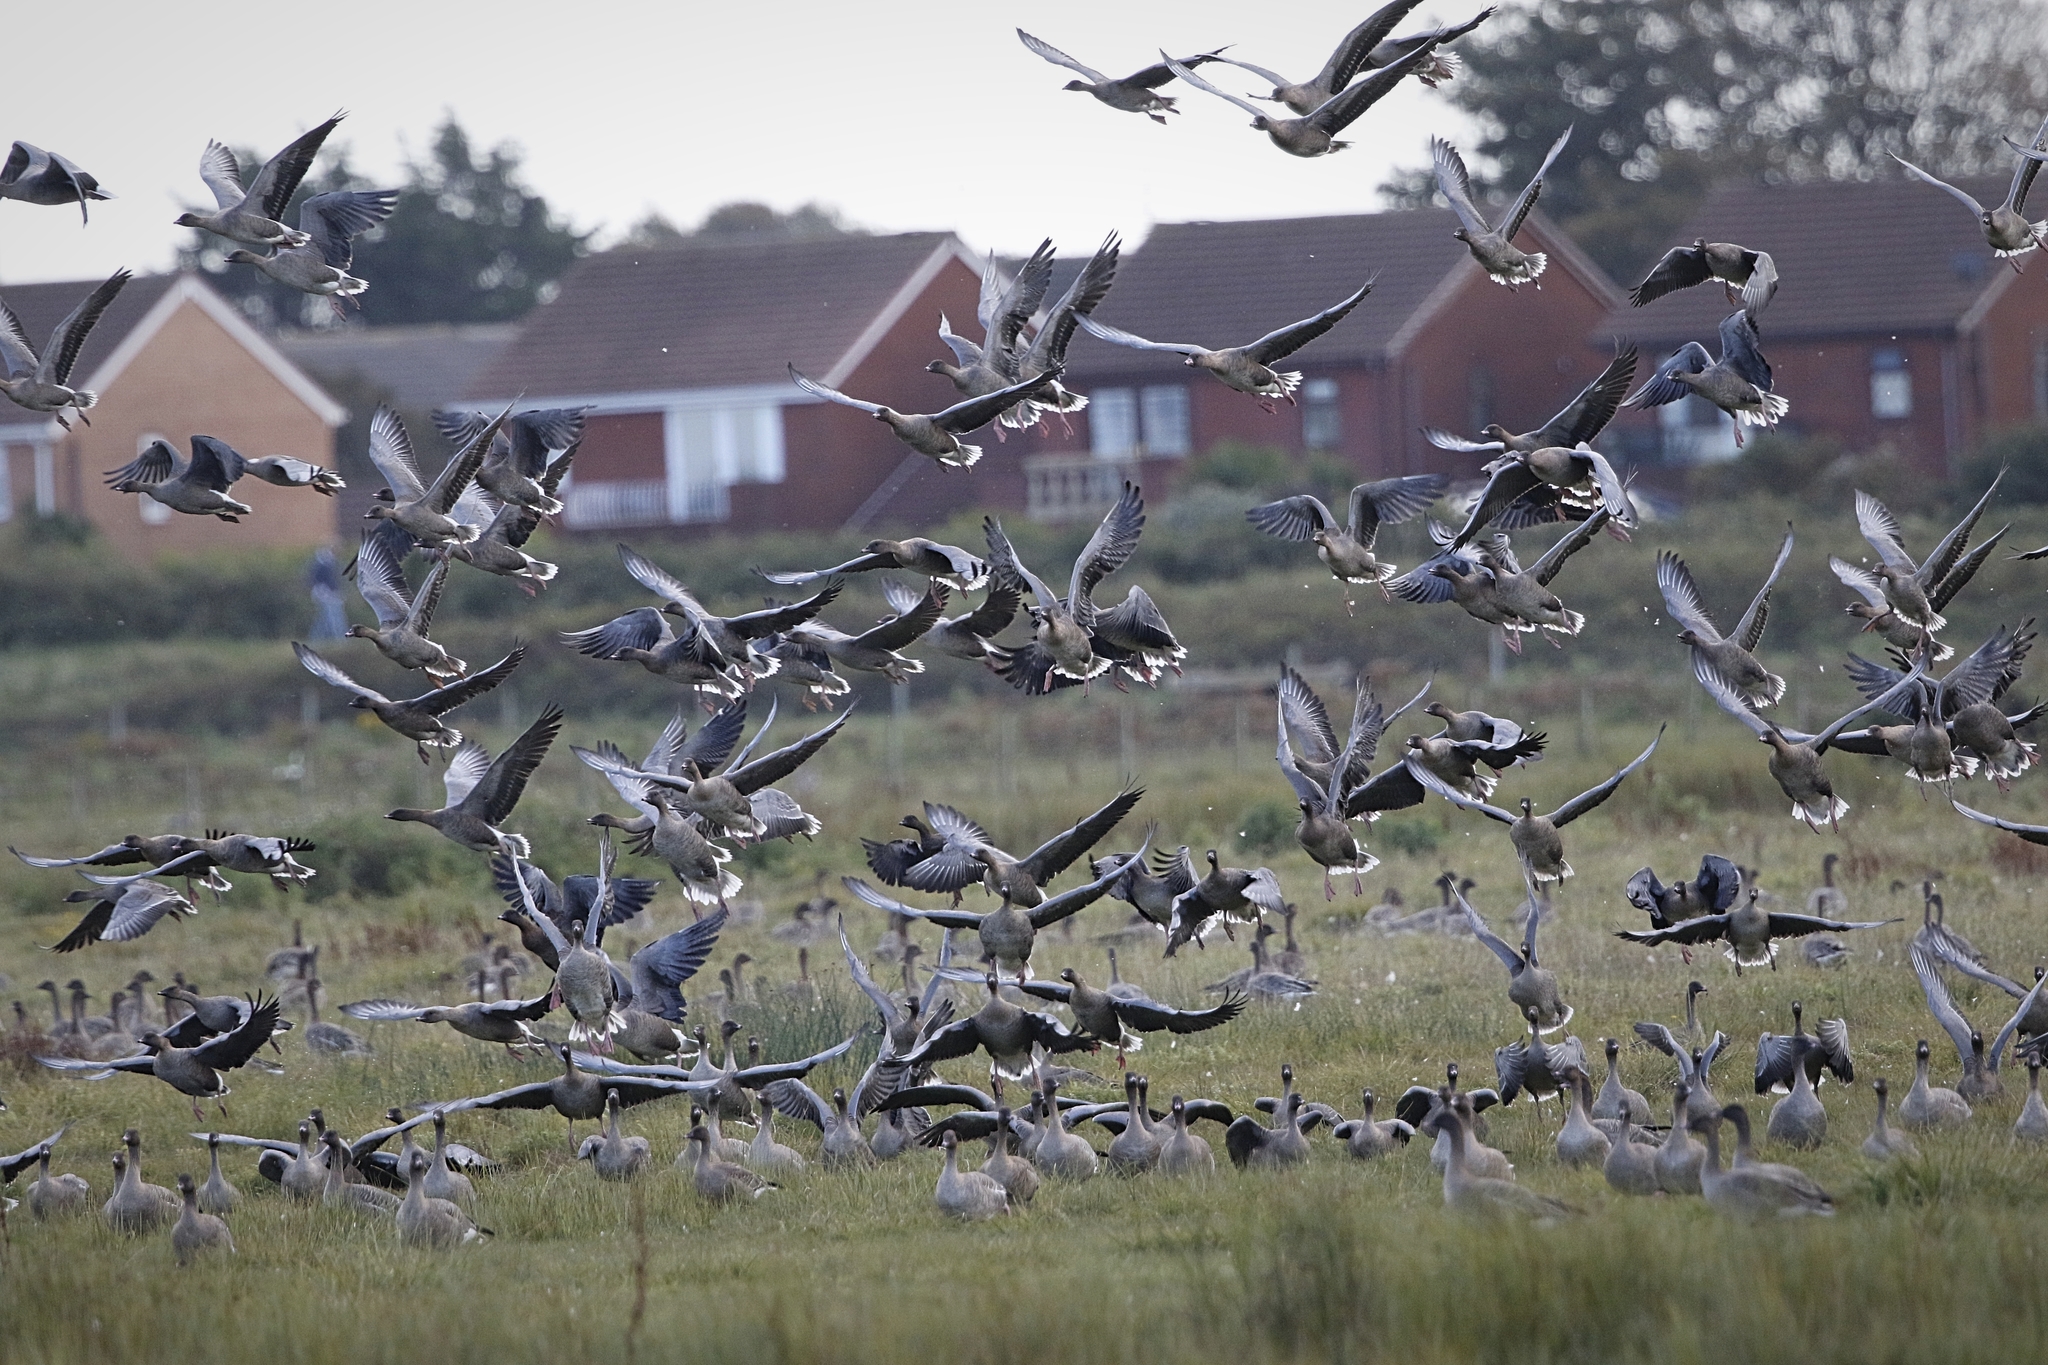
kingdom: Animalia
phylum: Chordata
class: Aves
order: Anseriformes
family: Anatidae
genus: Anser
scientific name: Anser brachyrhynchus
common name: Pink-footed goose
